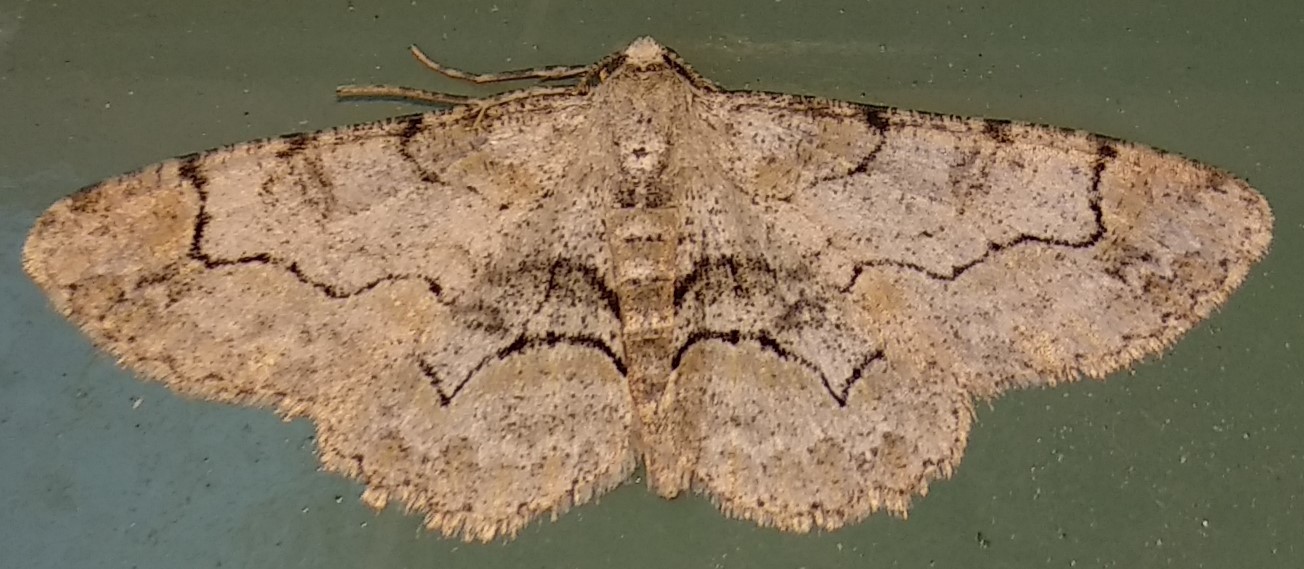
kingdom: Animalia
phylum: Arthropoda
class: Insecta
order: Lepidoptera
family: Geometridae
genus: Iridopsis
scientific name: Iridopsis larvaria
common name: Bent-line gray
